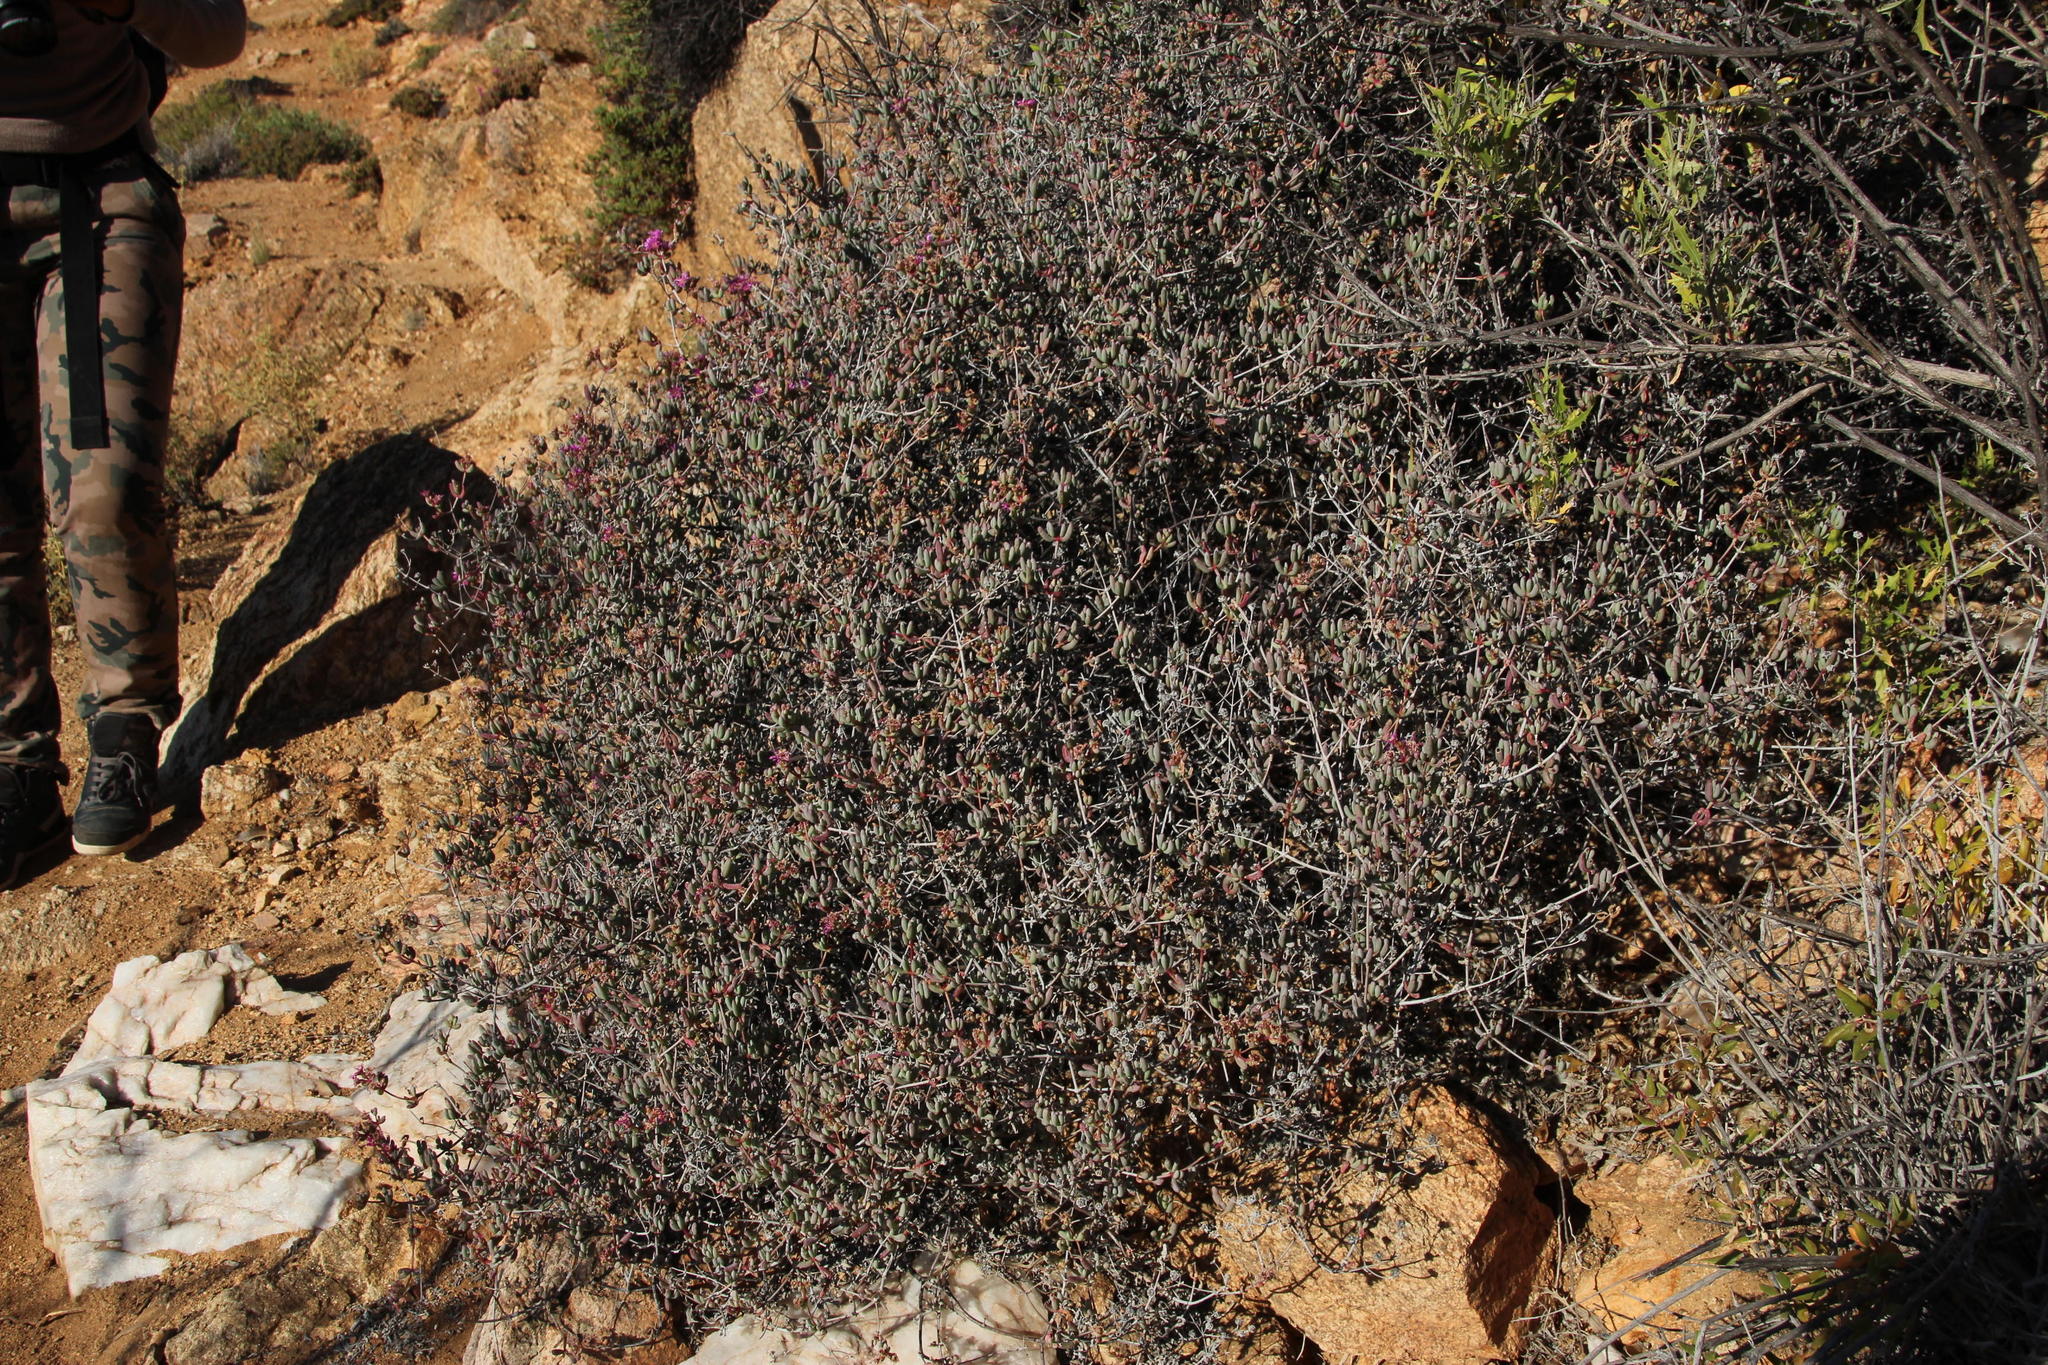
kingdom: Plantae
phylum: Tracheophyta
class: Magnoliopsida
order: Caryophyllales
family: Aizoaceae
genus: Ruschia
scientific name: Ruschia erecta
